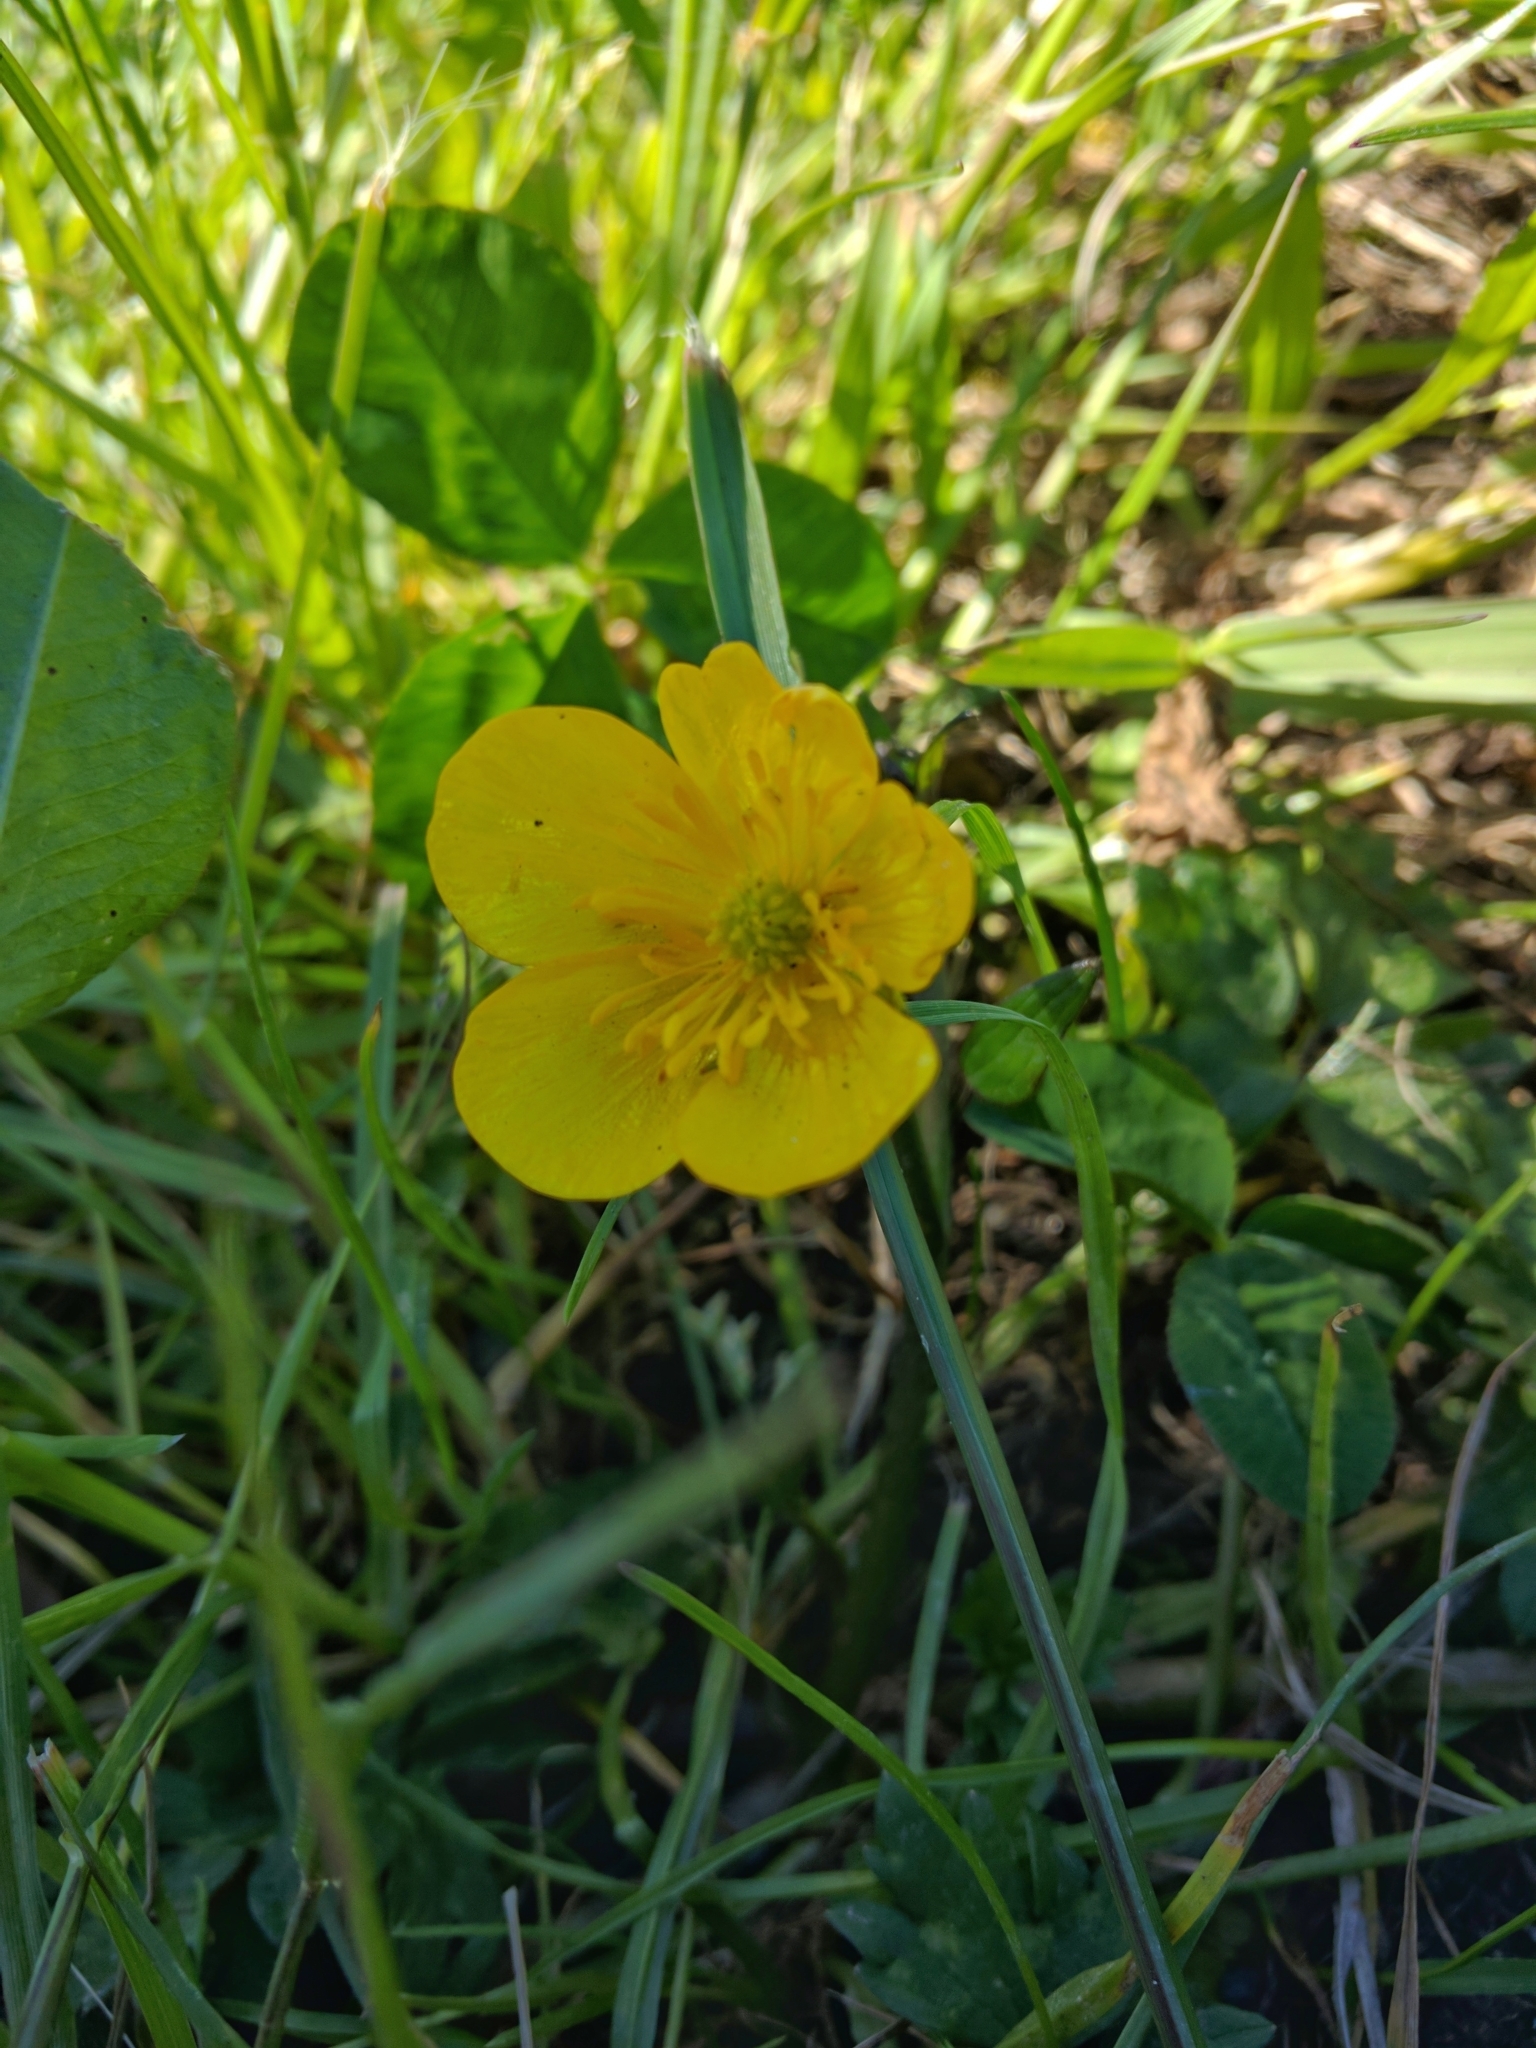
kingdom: Plantae
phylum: Tracheophyta
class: Magnoliopsida
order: Ranunculales
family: Ranunculaceae
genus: Ranunculus
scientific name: Ranunculus repens
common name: Creeping buttercup
